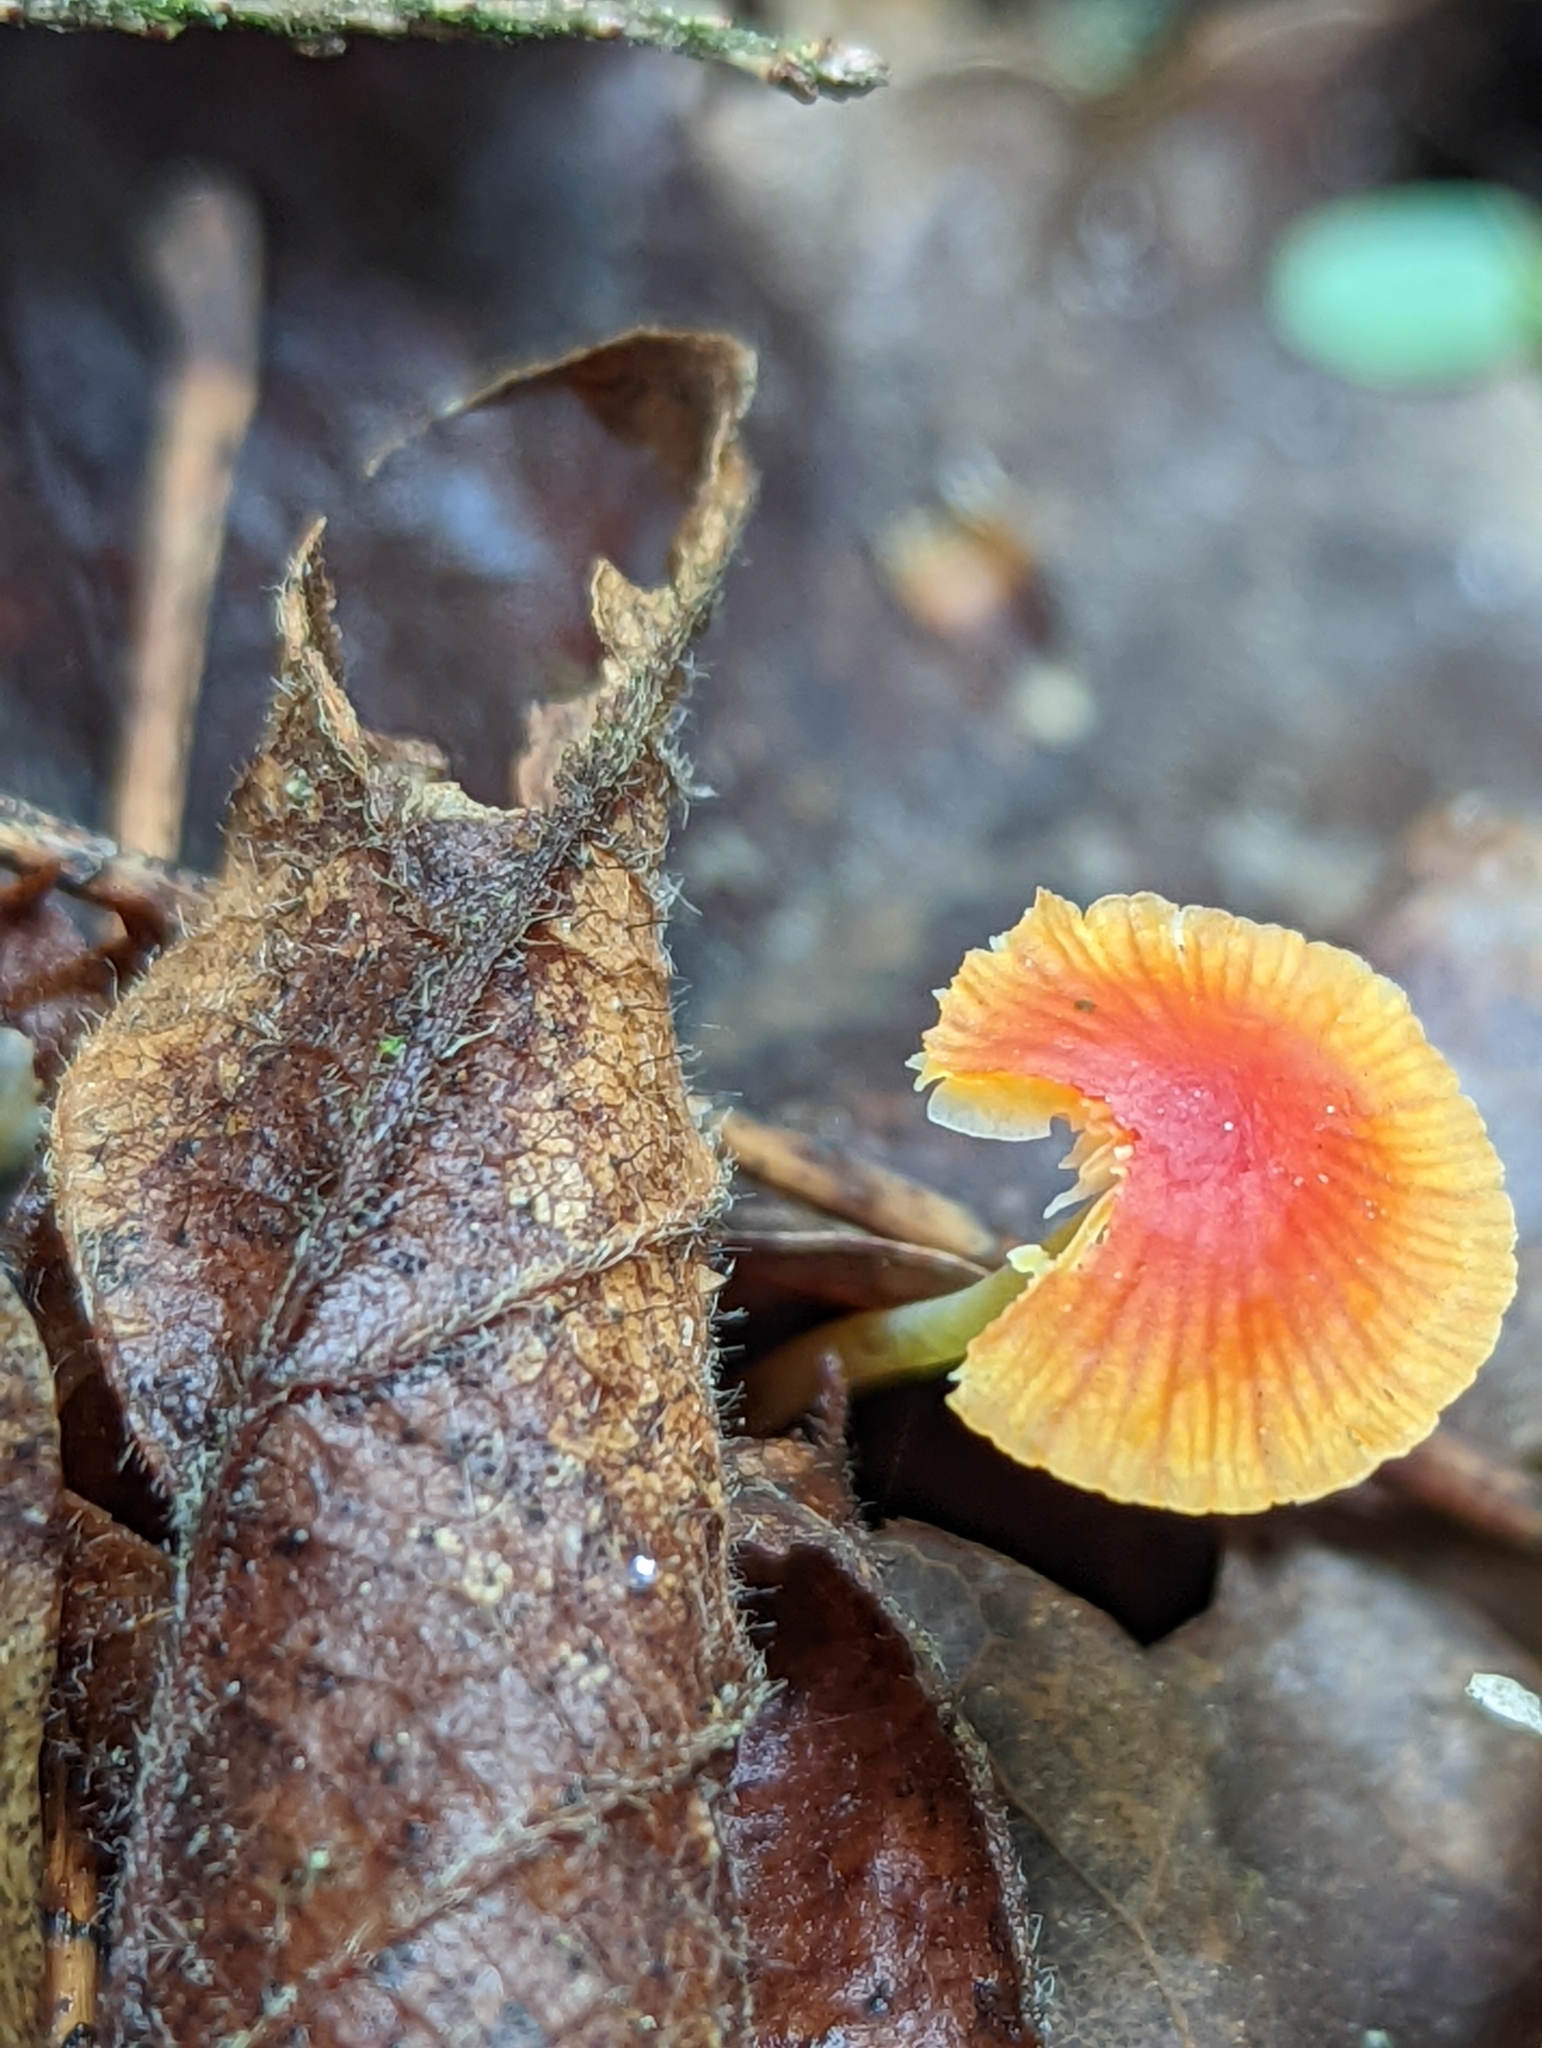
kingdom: Fungi
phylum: Basidiomycota
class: Agaricomycetes
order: Agaricales
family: Mycenaceae
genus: Mycena
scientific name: Mycena acicula
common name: Orange bonnet
